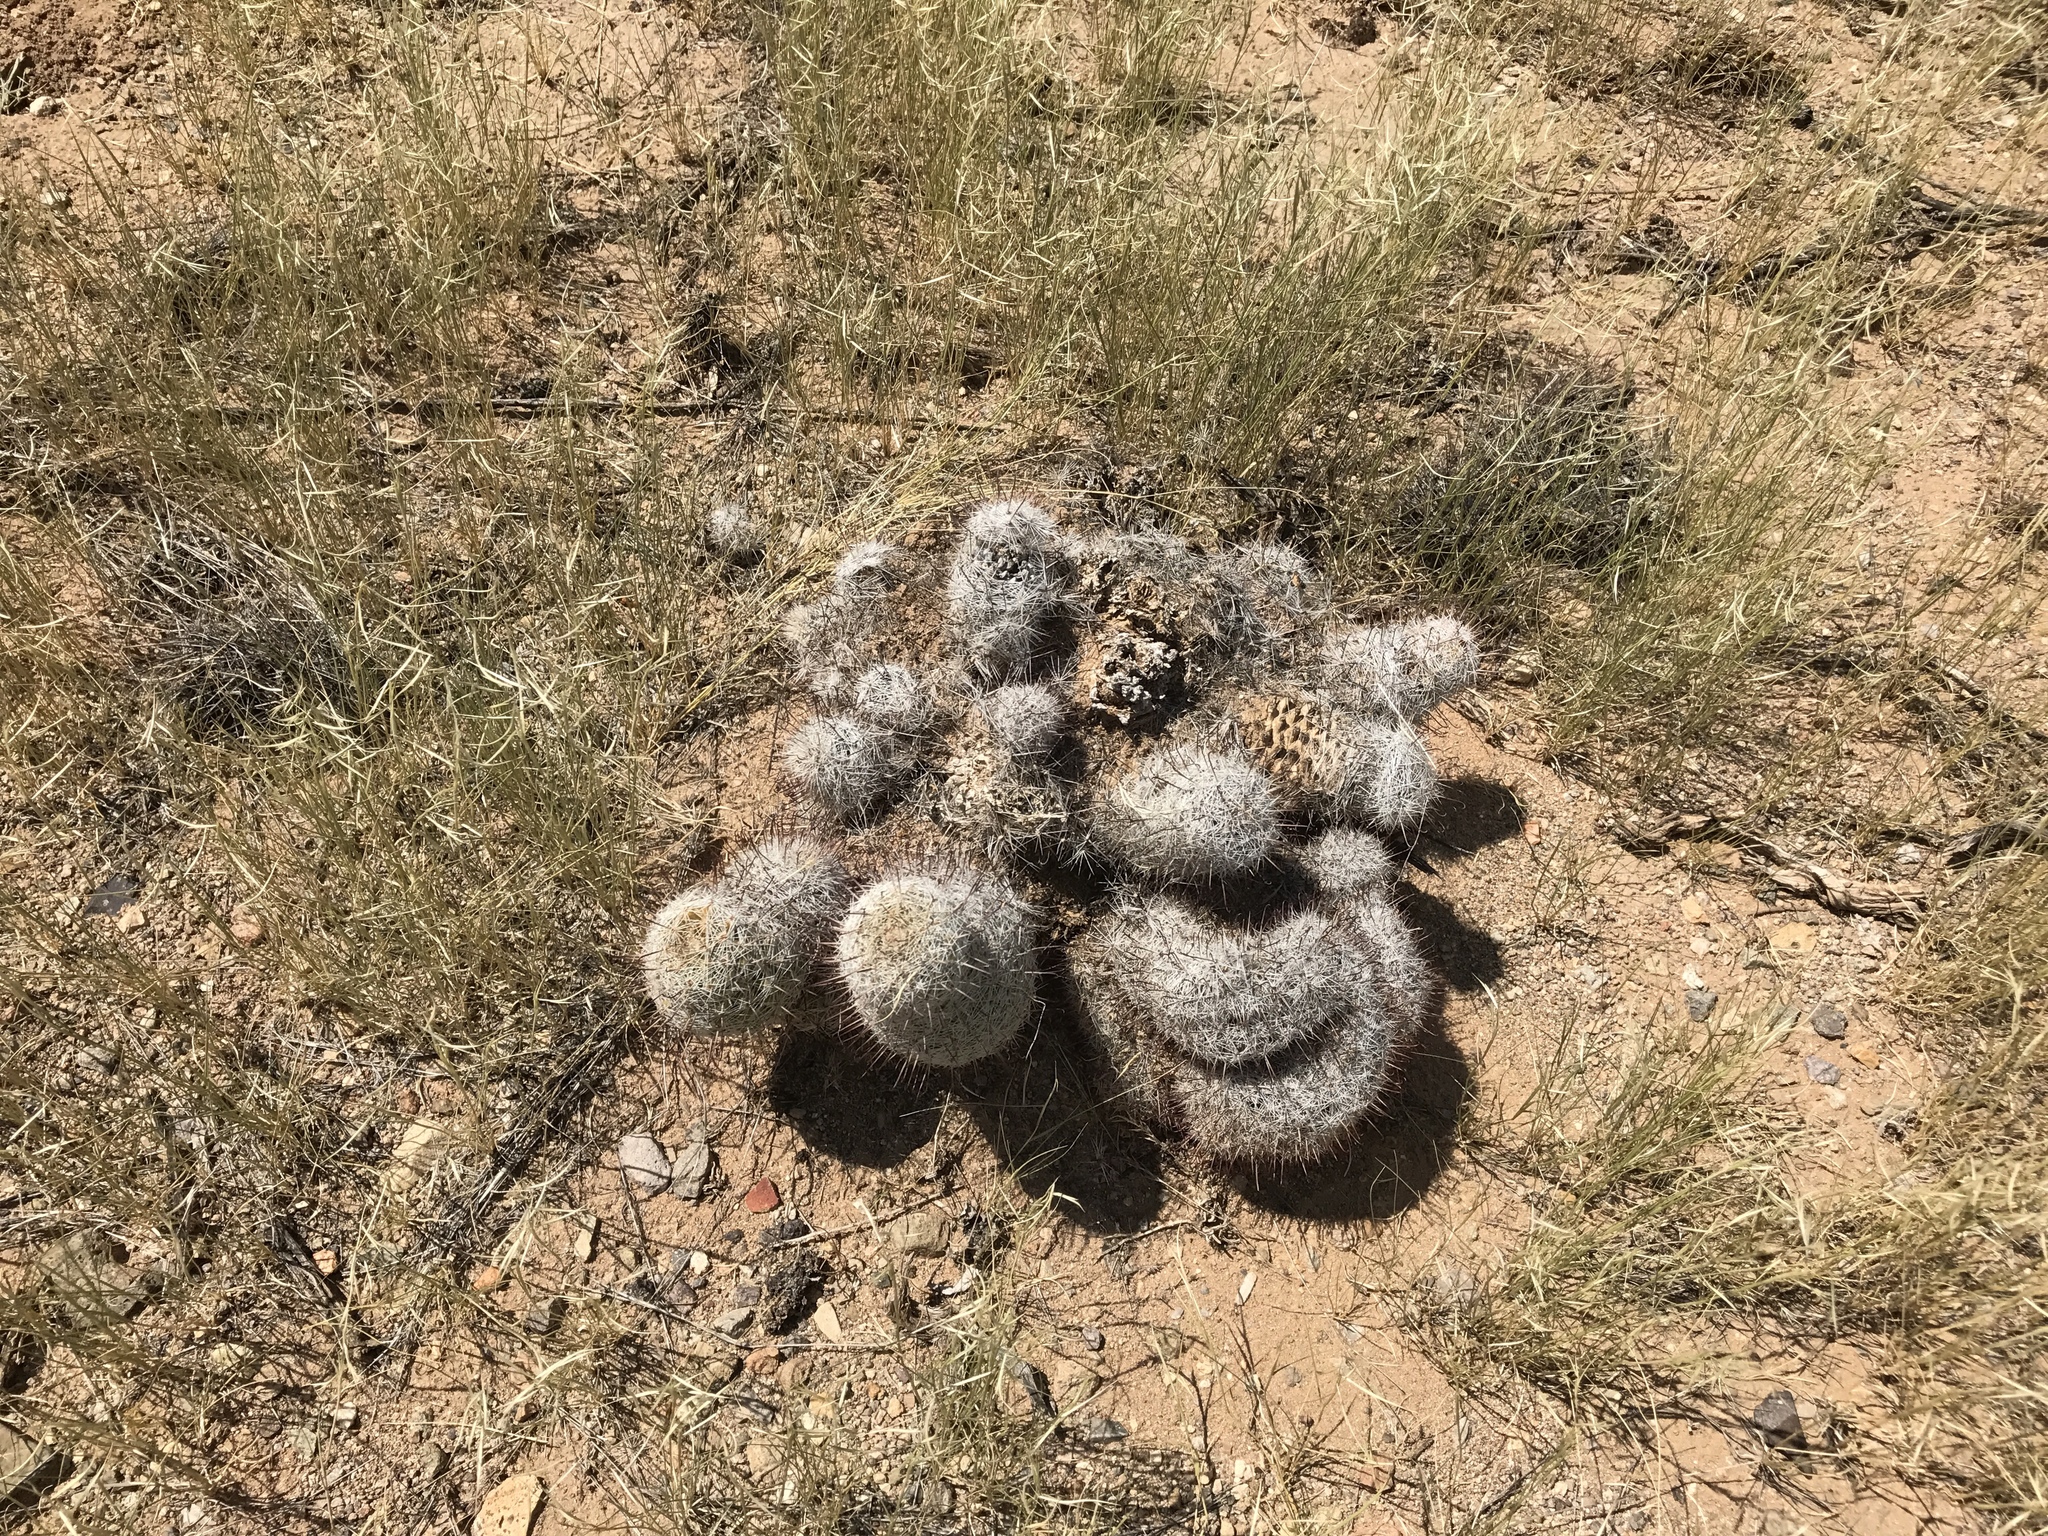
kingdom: Plantae
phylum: Tracheophyta
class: Magnoliopsida
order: Caryophyllales
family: Cactaceae
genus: Cochemiea
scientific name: Cochemiea grahamii
